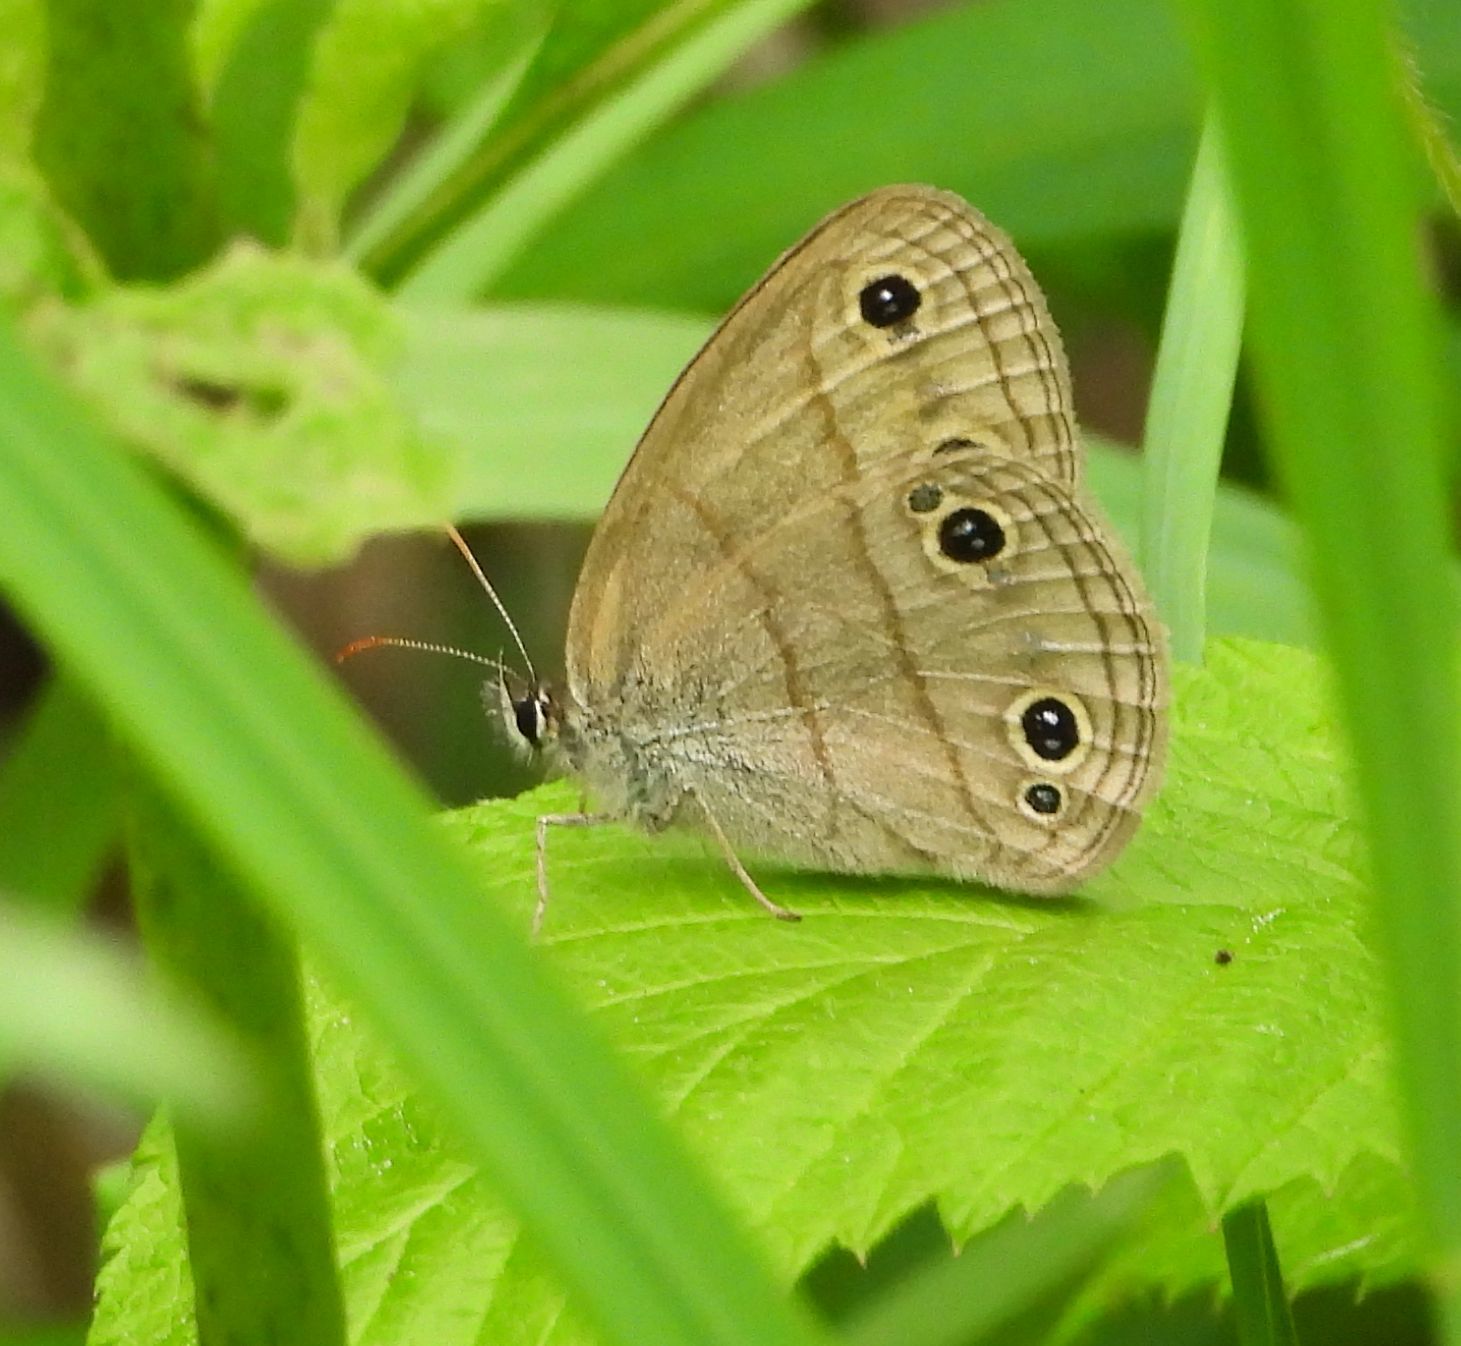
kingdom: Animalia
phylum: Arthropoda
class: Insecta
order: Lepidoptera
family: Nymphalidae
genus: Euptychia
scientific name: Euptychia cymela
